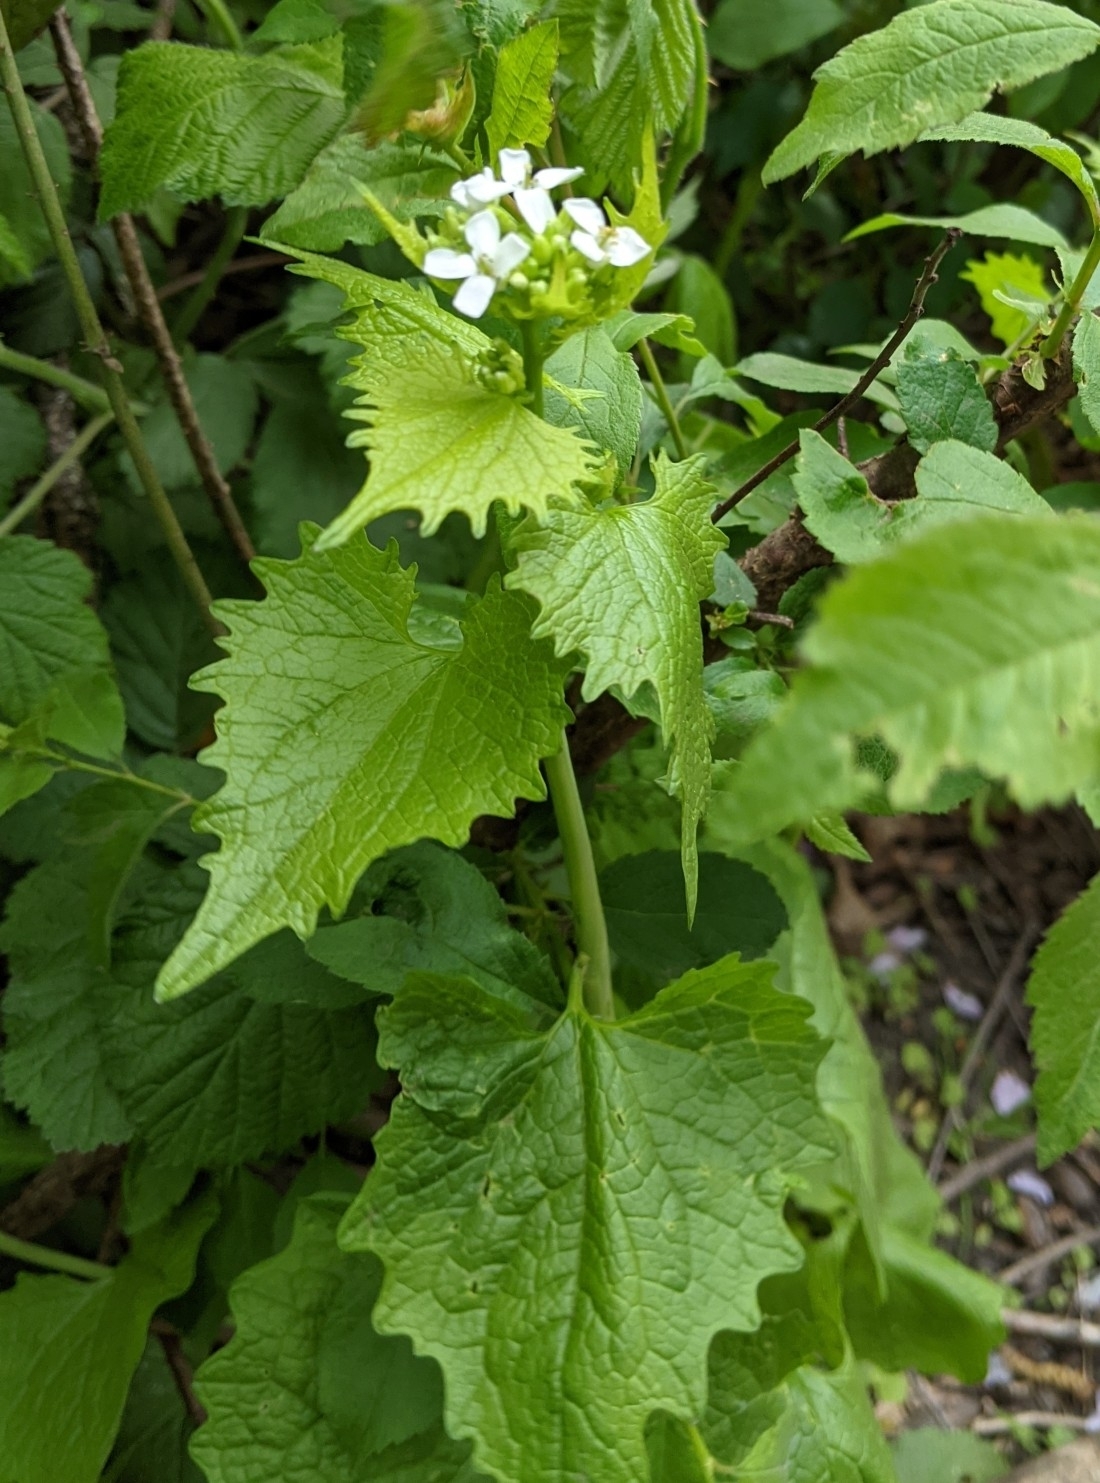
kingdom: Plantae
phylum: Tracheophyta
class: Magnoliopsida
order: Brassicales
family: Brassicaceae
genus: Alliaria
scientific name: Alliaria petiolata
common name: Garlic mustard
